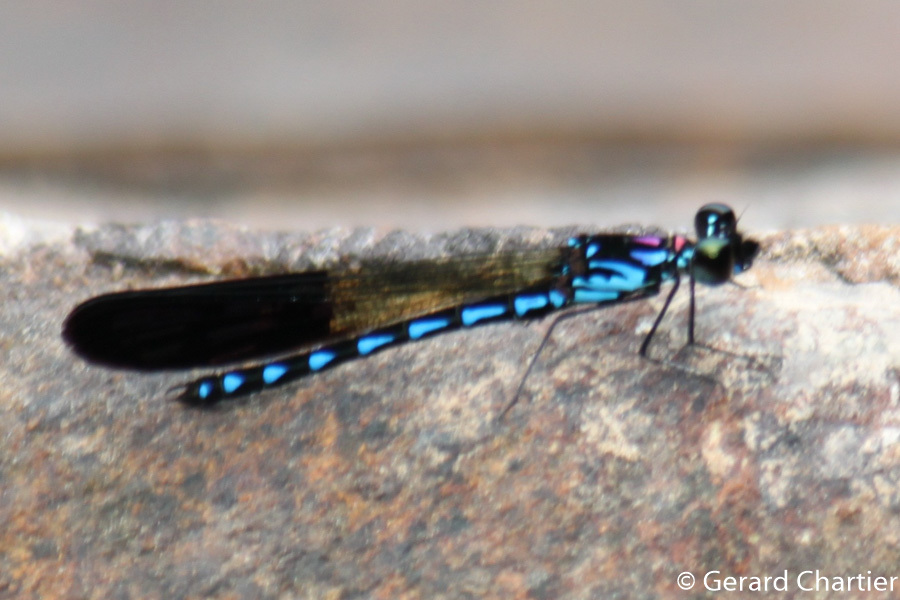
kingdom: Animalia
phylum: Arthropoda
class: Insecta
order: Odonata
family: Chlorocyphidae
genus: Heliocypha
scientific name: Heliocypha perforata
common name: Common blue jewel
